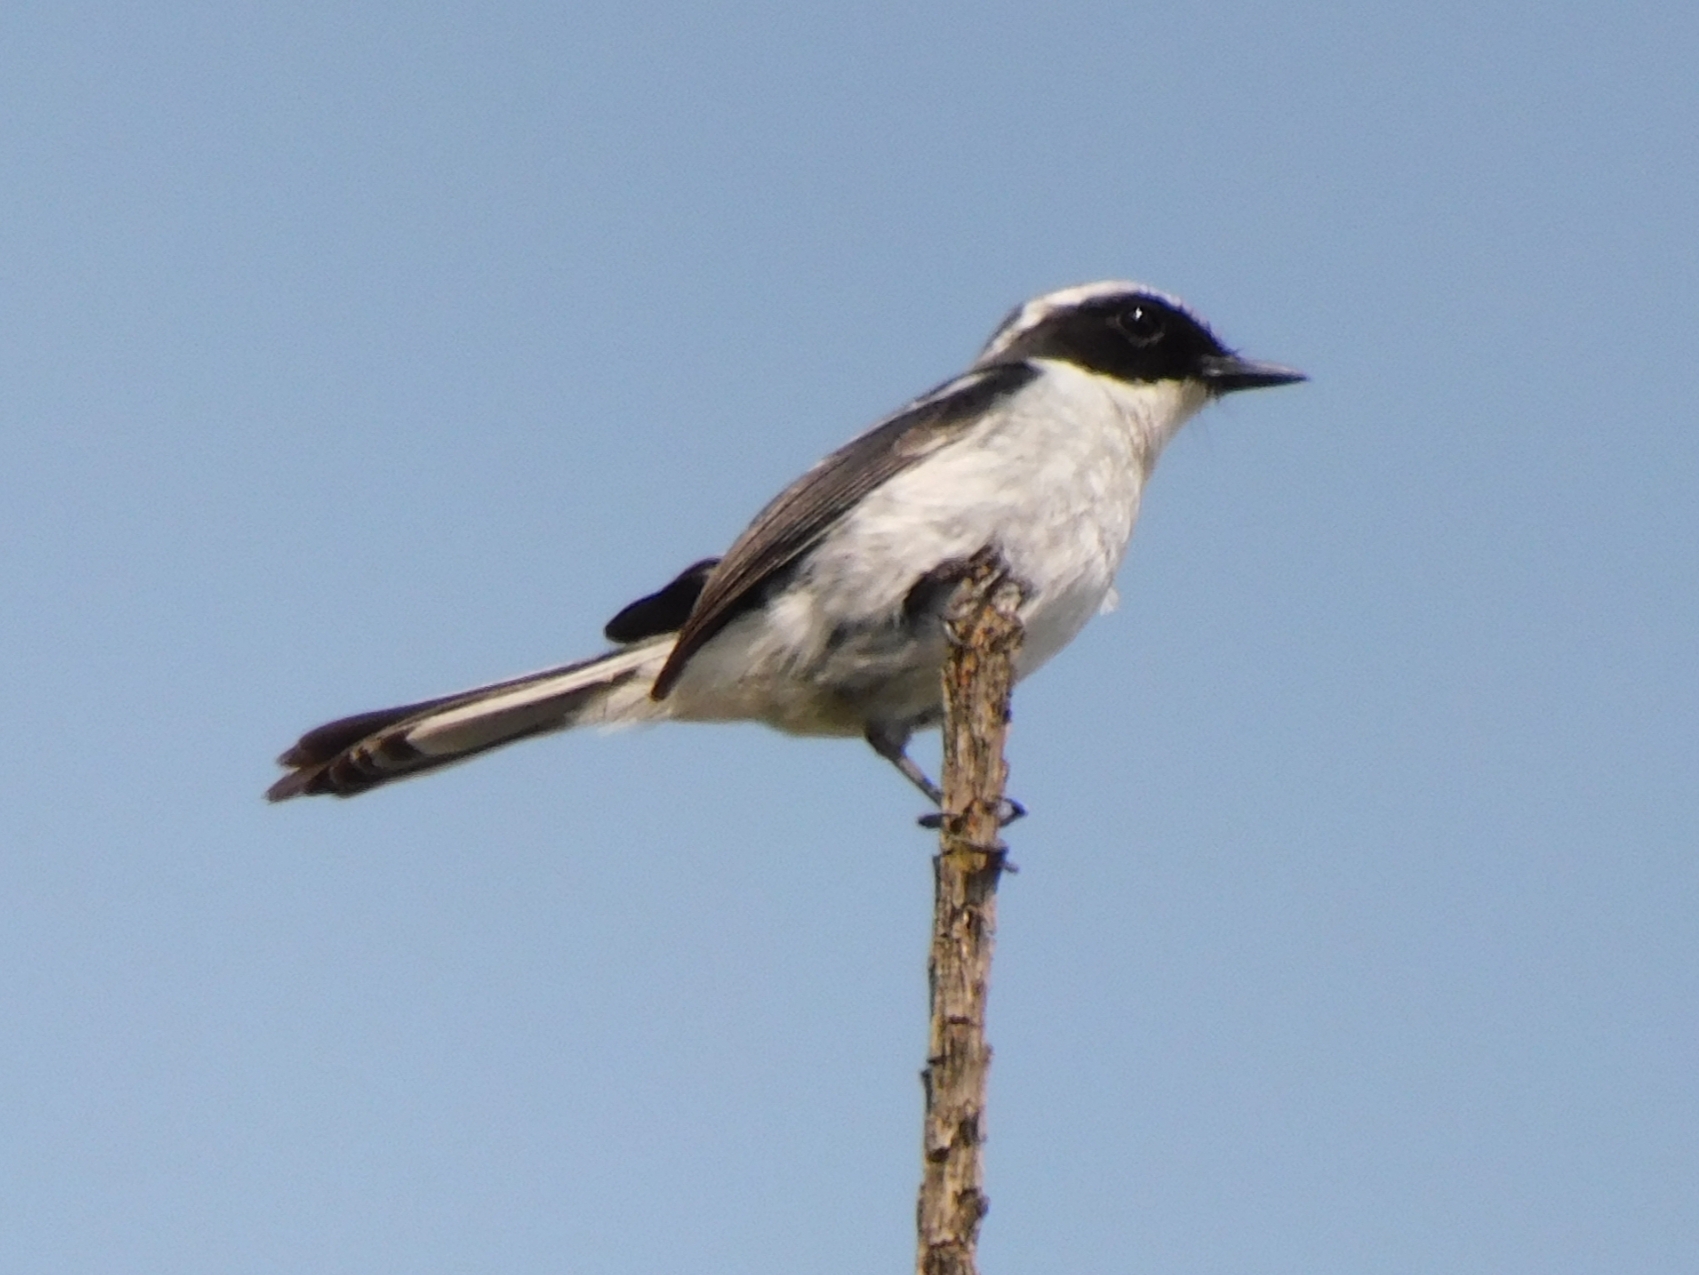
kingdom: Animalia
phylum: Chordata
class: Aves
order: Passeriformes
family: Muscicapidae
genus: Saxicola
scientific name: Saxicola ferreus
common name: Grey bush chat
